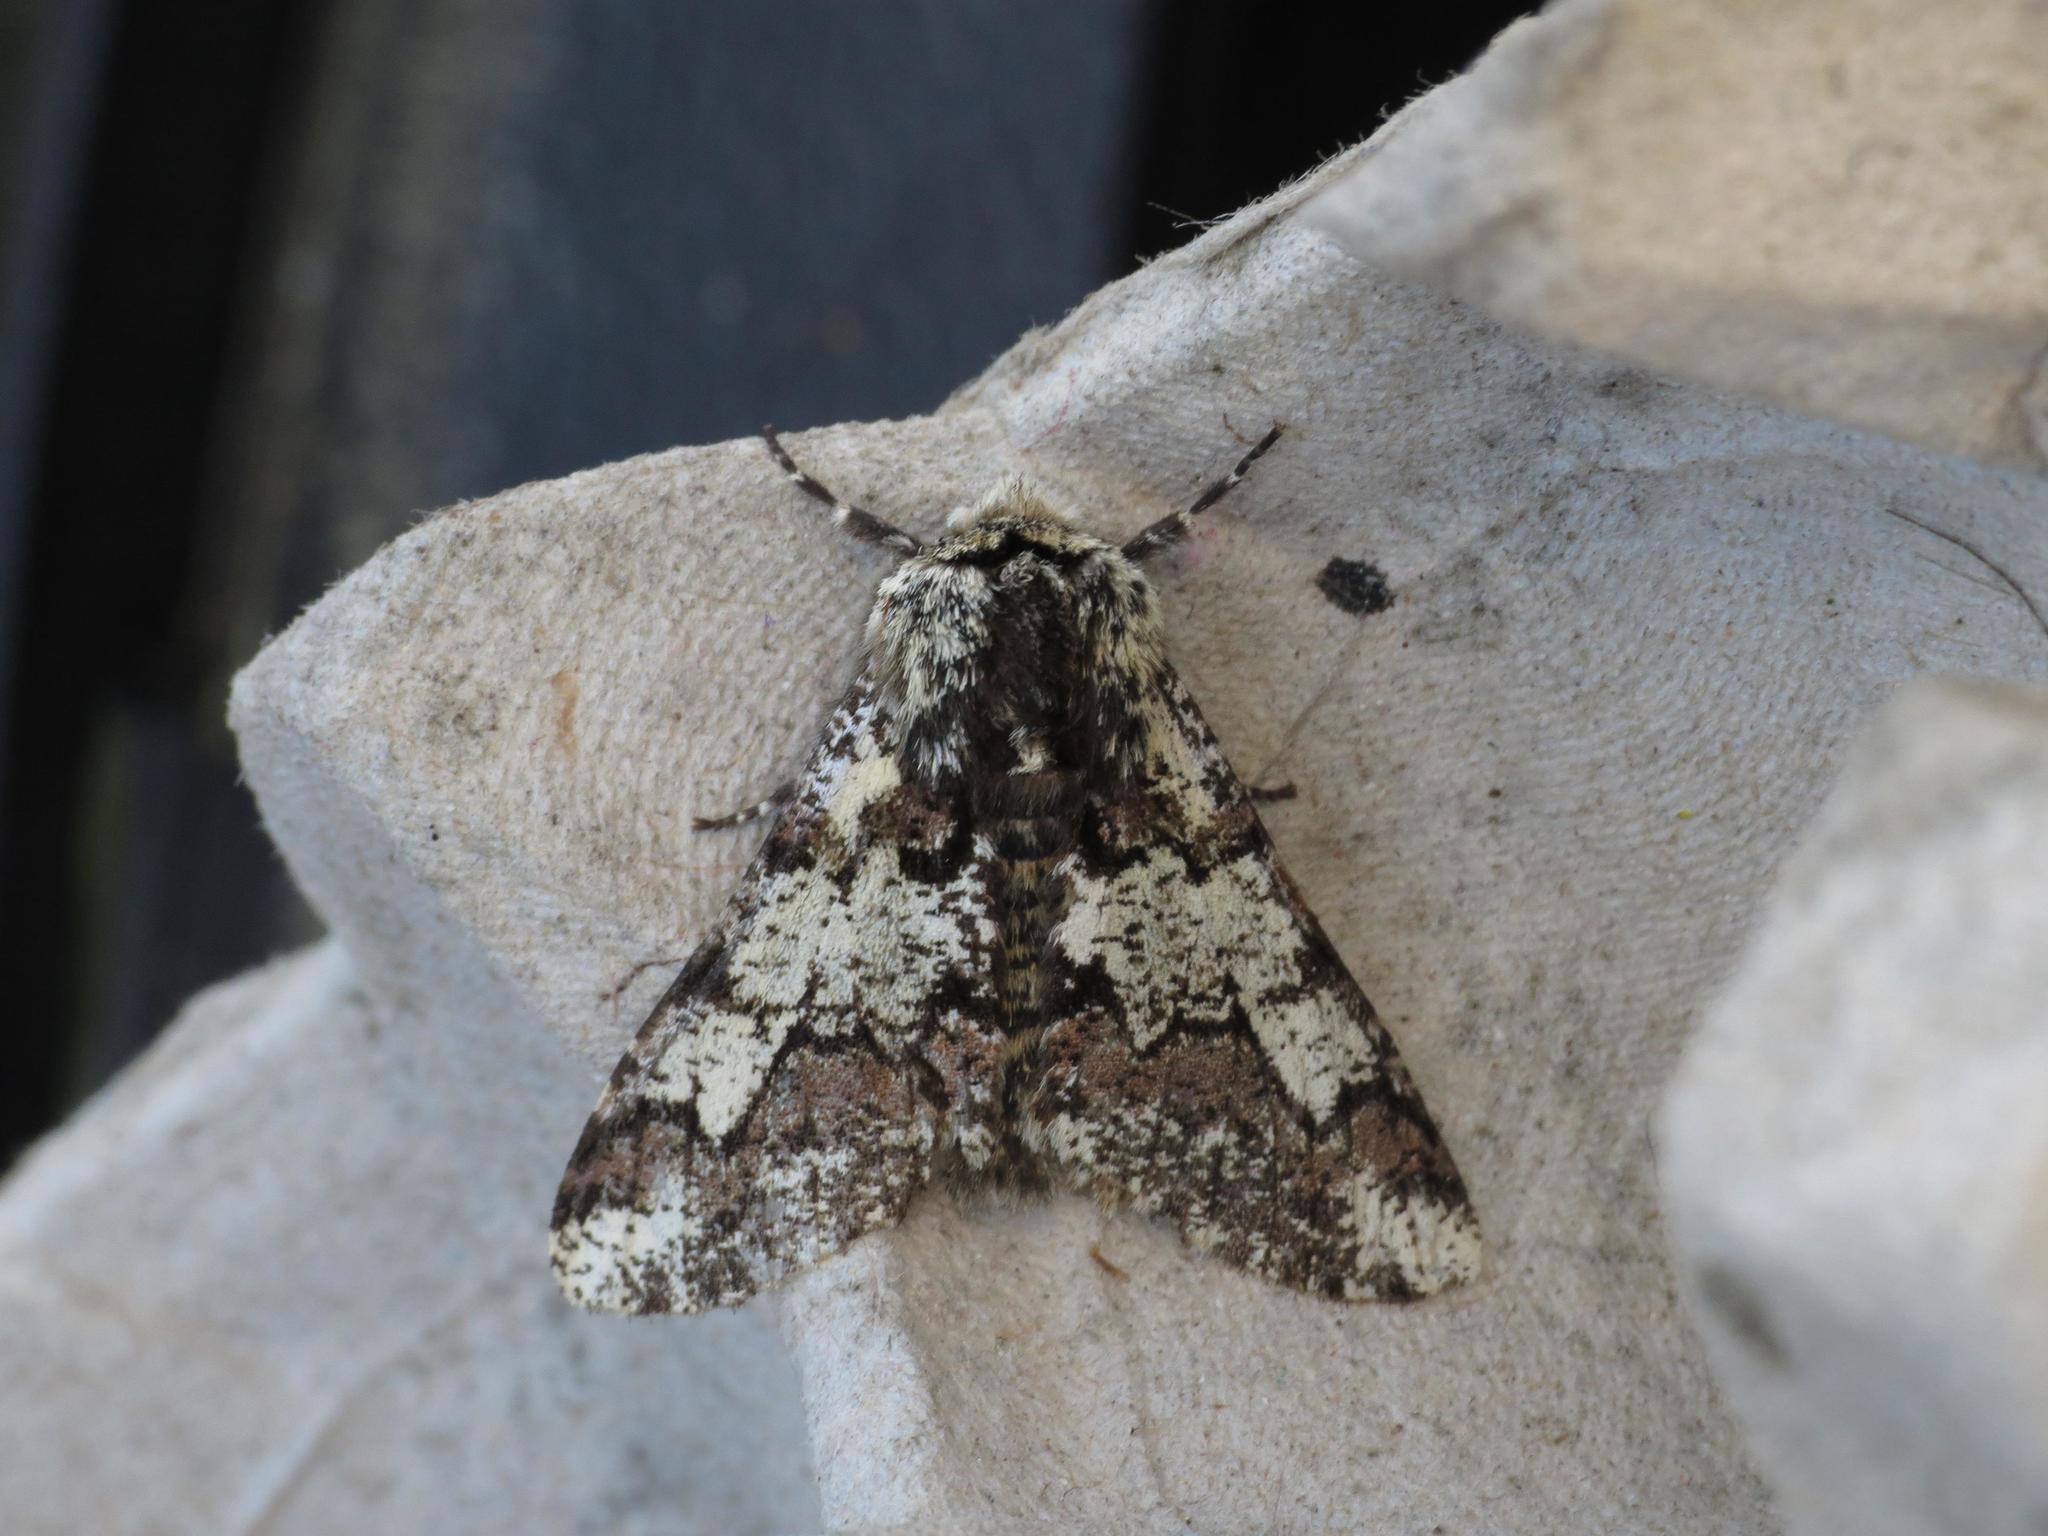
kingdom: Animalia
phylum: Arthropoda
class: Insecta
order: Lepidoptera
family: Geometridae
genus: Biston
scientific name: Biston strataria
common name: Oak beauty
